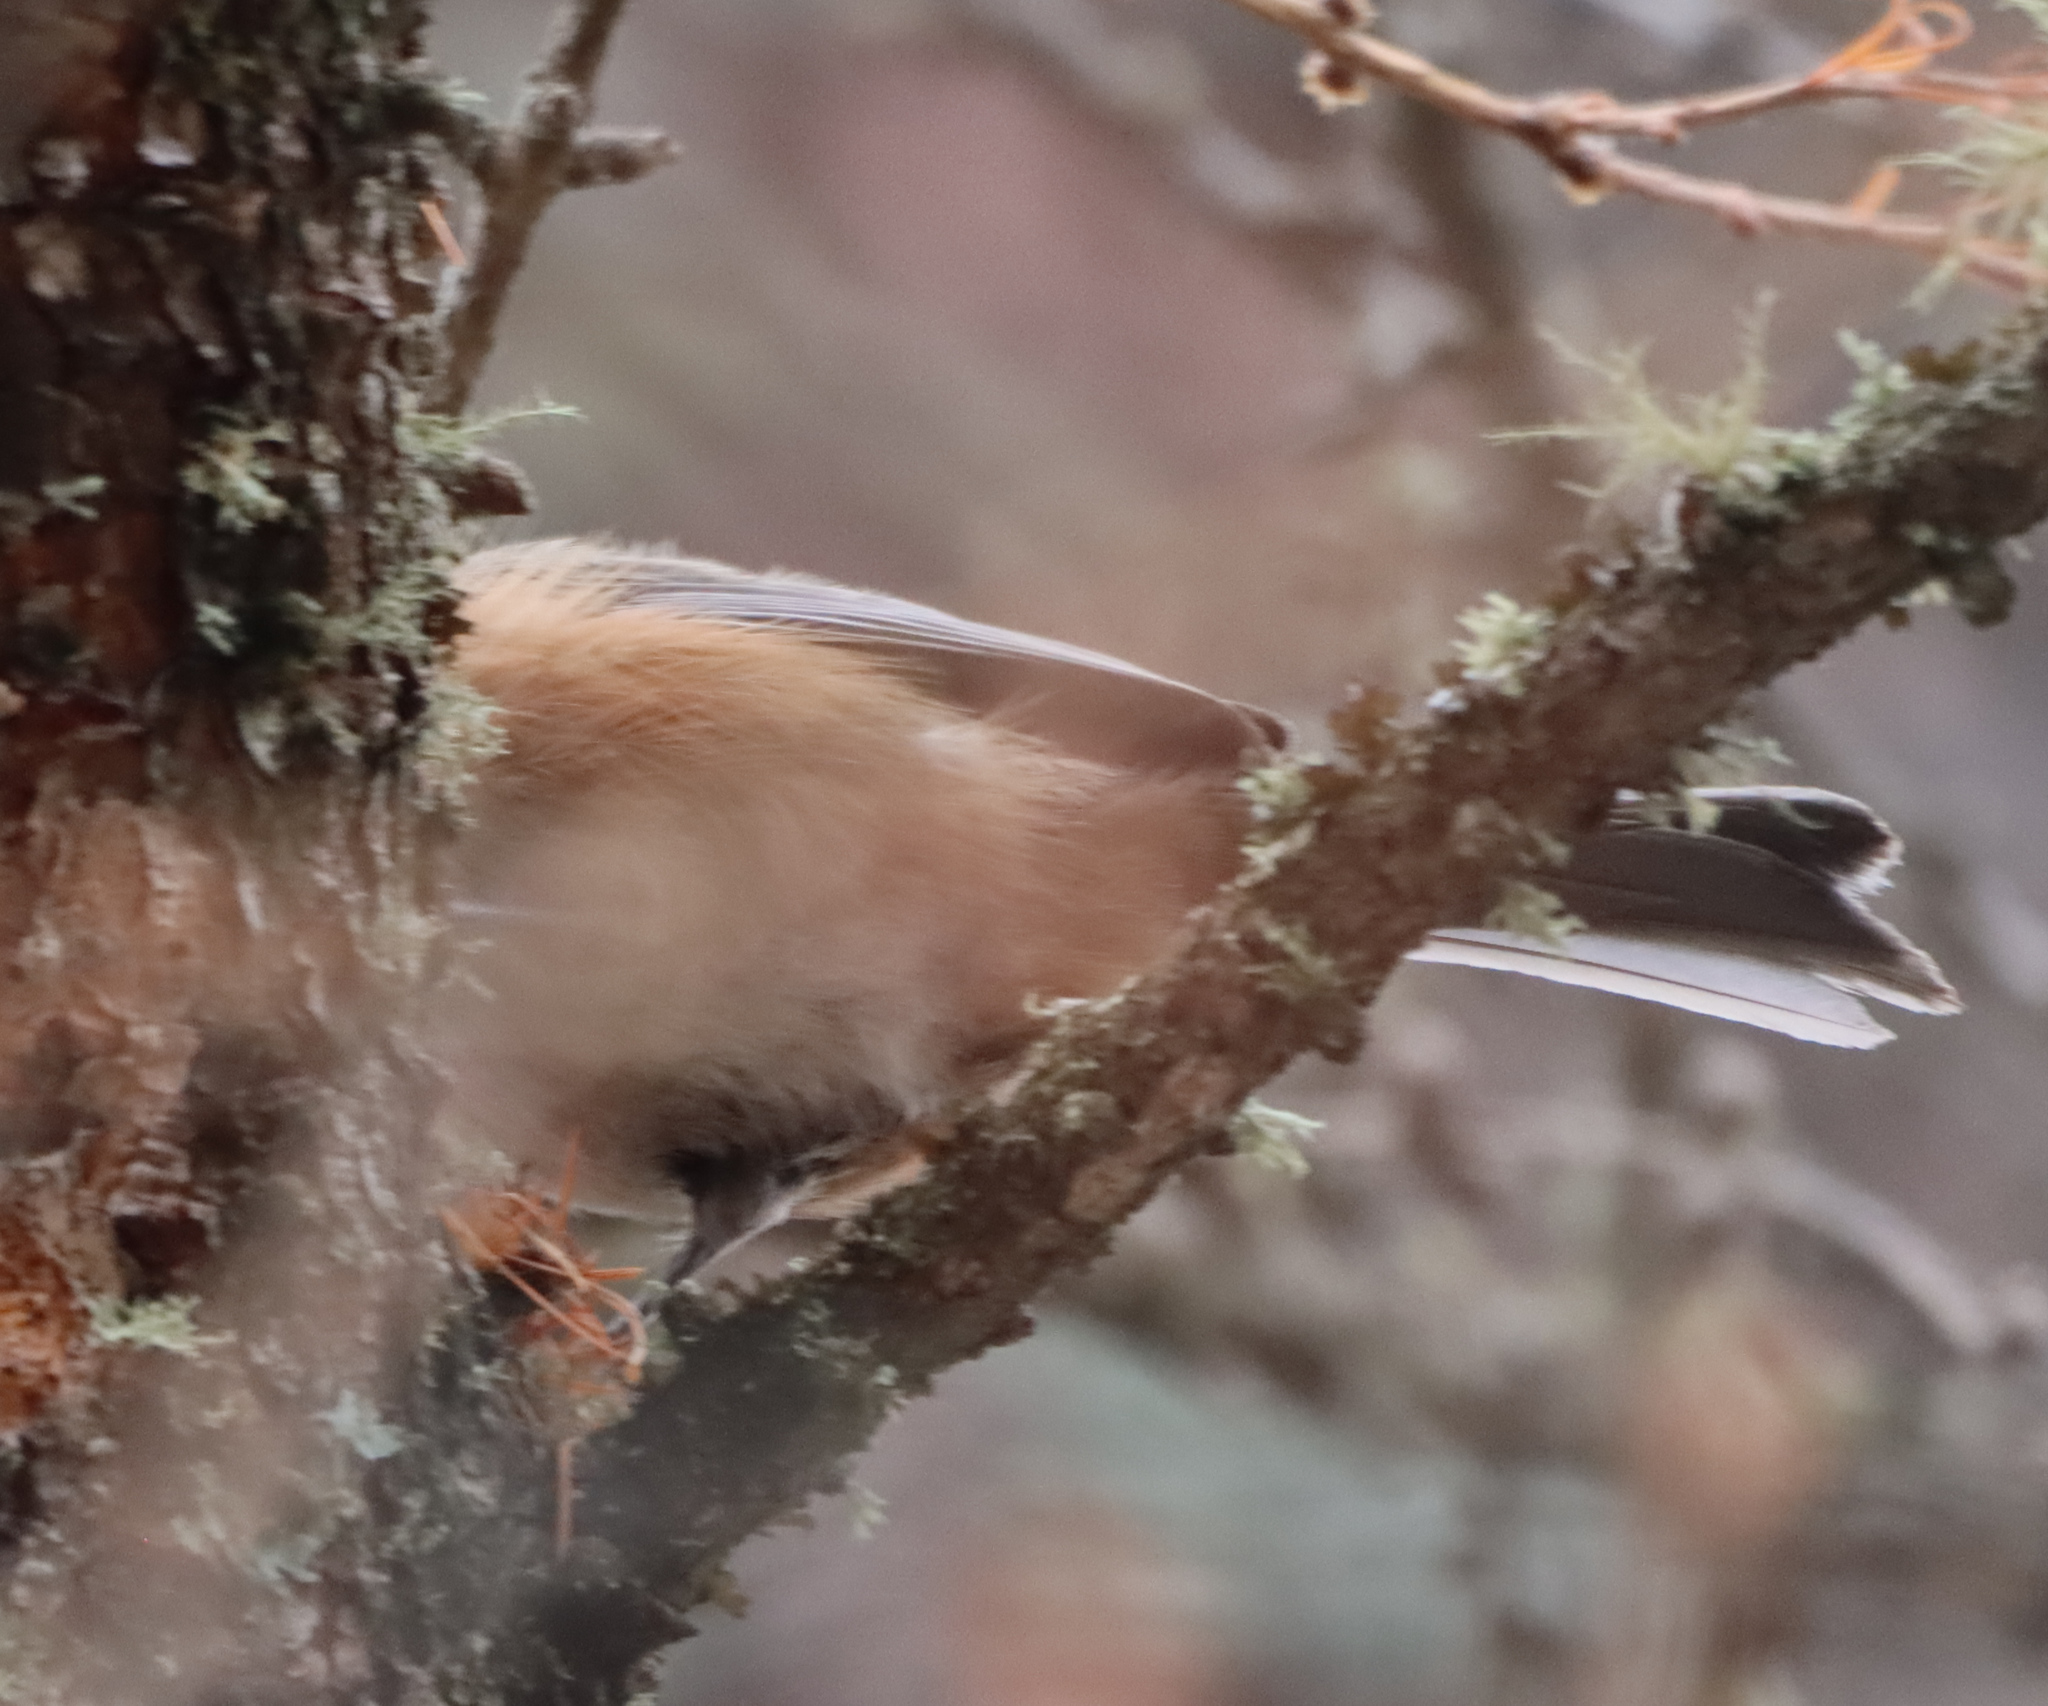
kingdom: Animalia
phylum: Chordata
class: Aves
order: Passeriformes
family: Paridae
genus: Poecile
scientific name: Poecile hudsonicus
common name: Boreal chickadee
